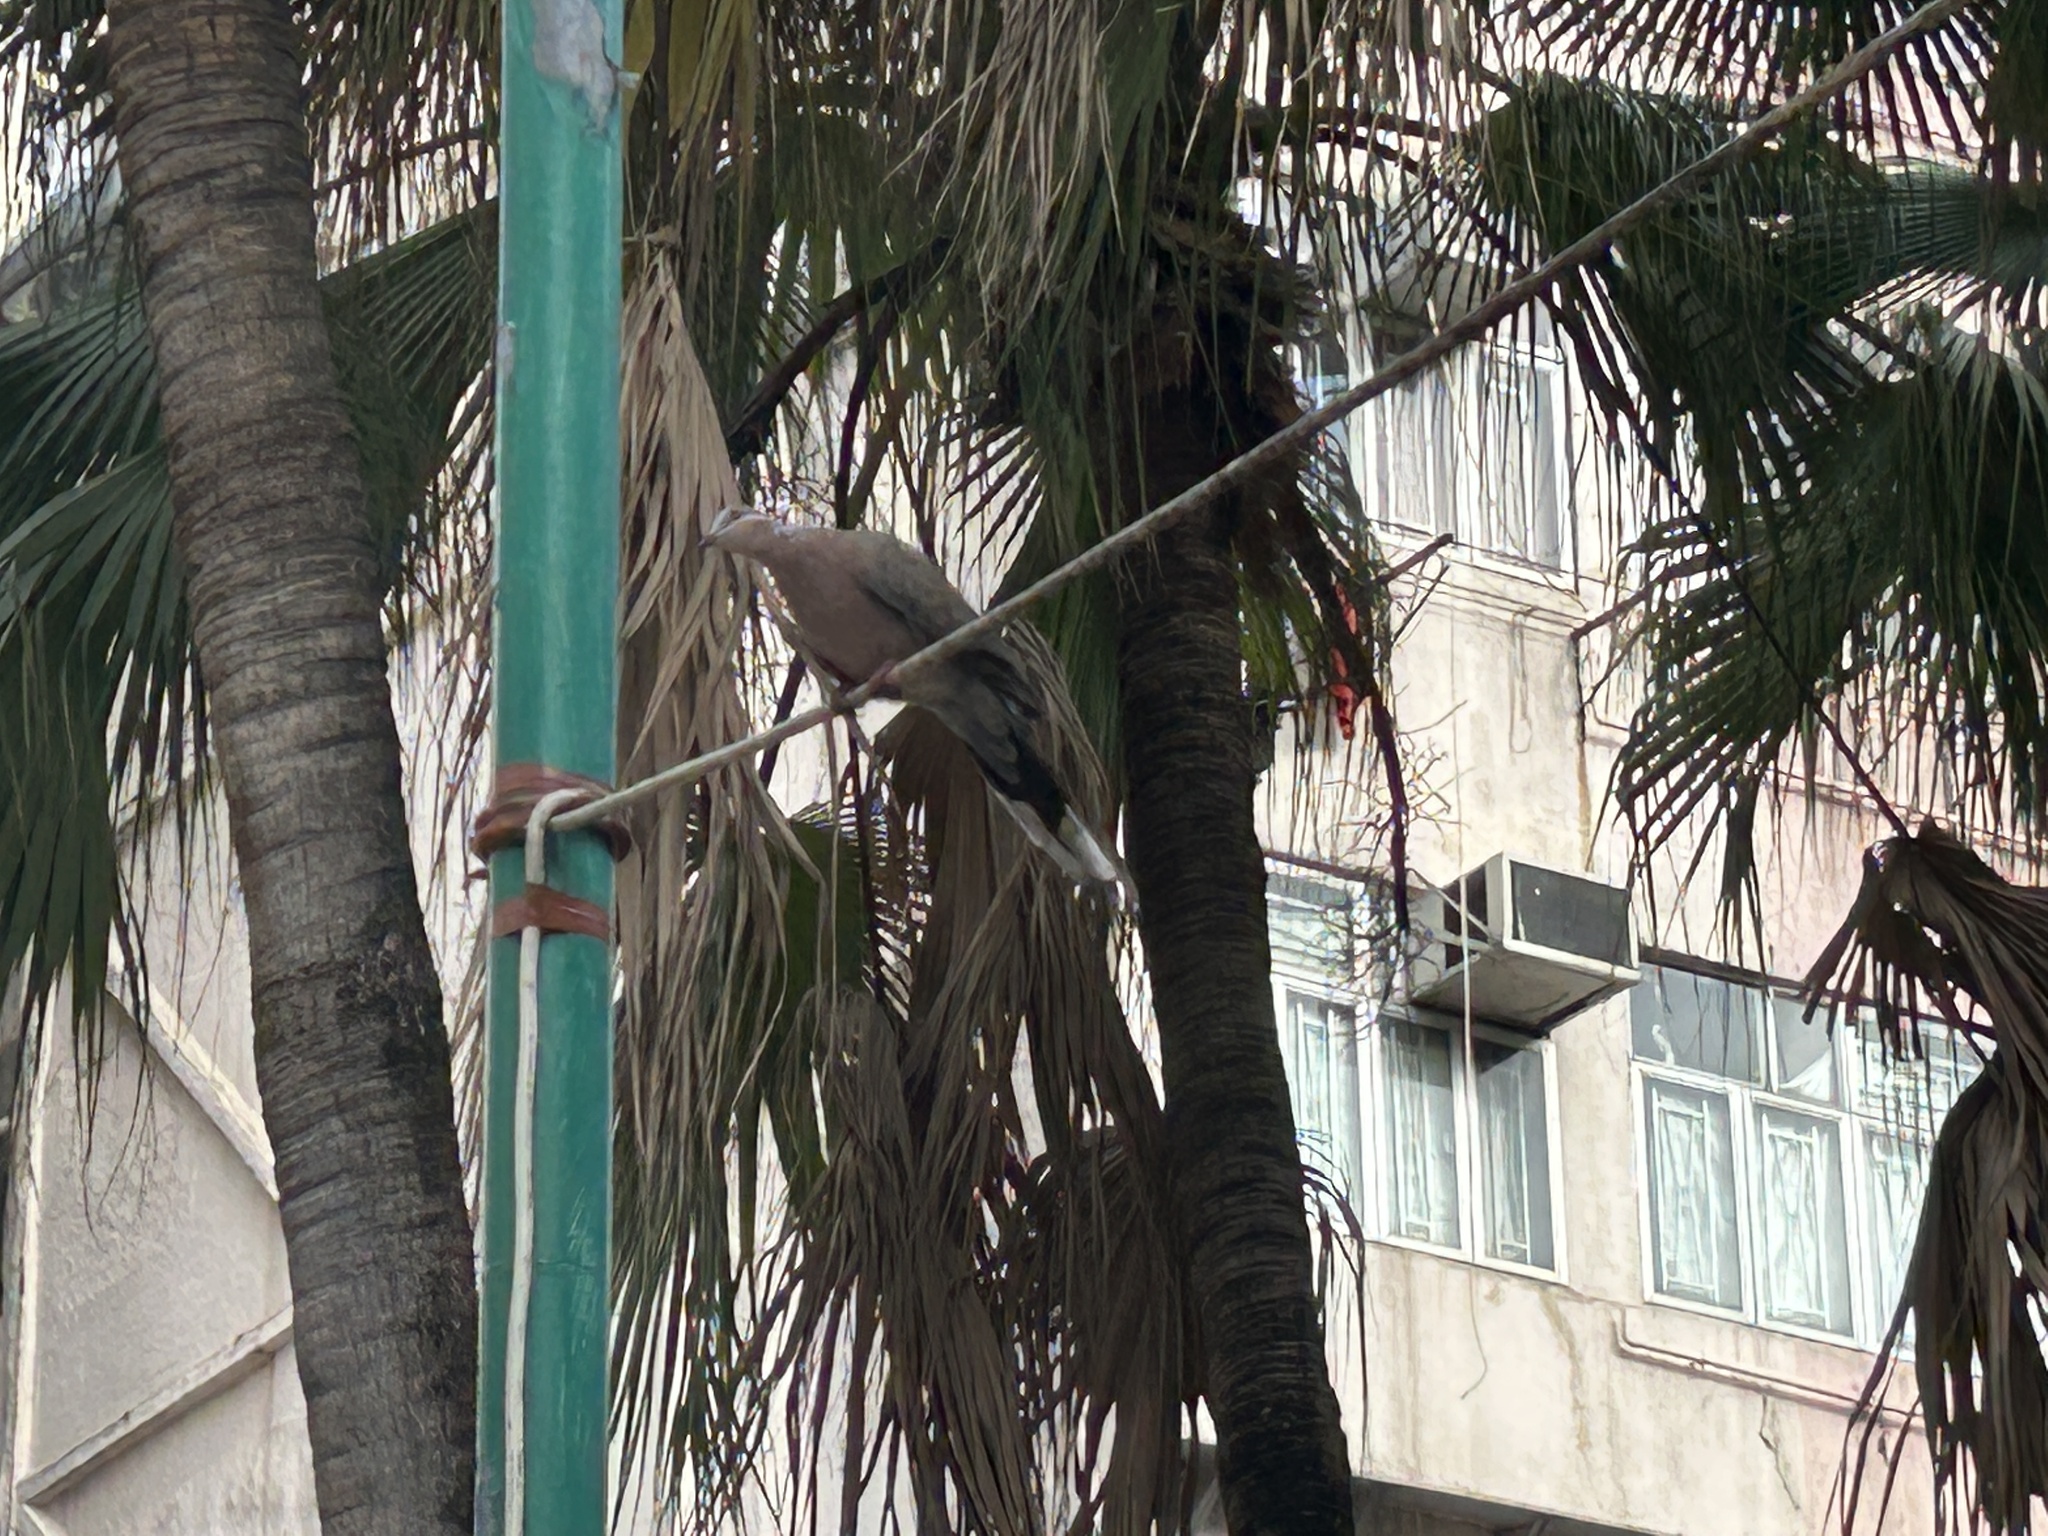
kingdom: Animalia
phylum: Chordata
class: Aves
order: Columbiformes
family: Columbidae
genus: Spilopelia
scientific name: Spilopelia chinensis
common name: Spotted dove
